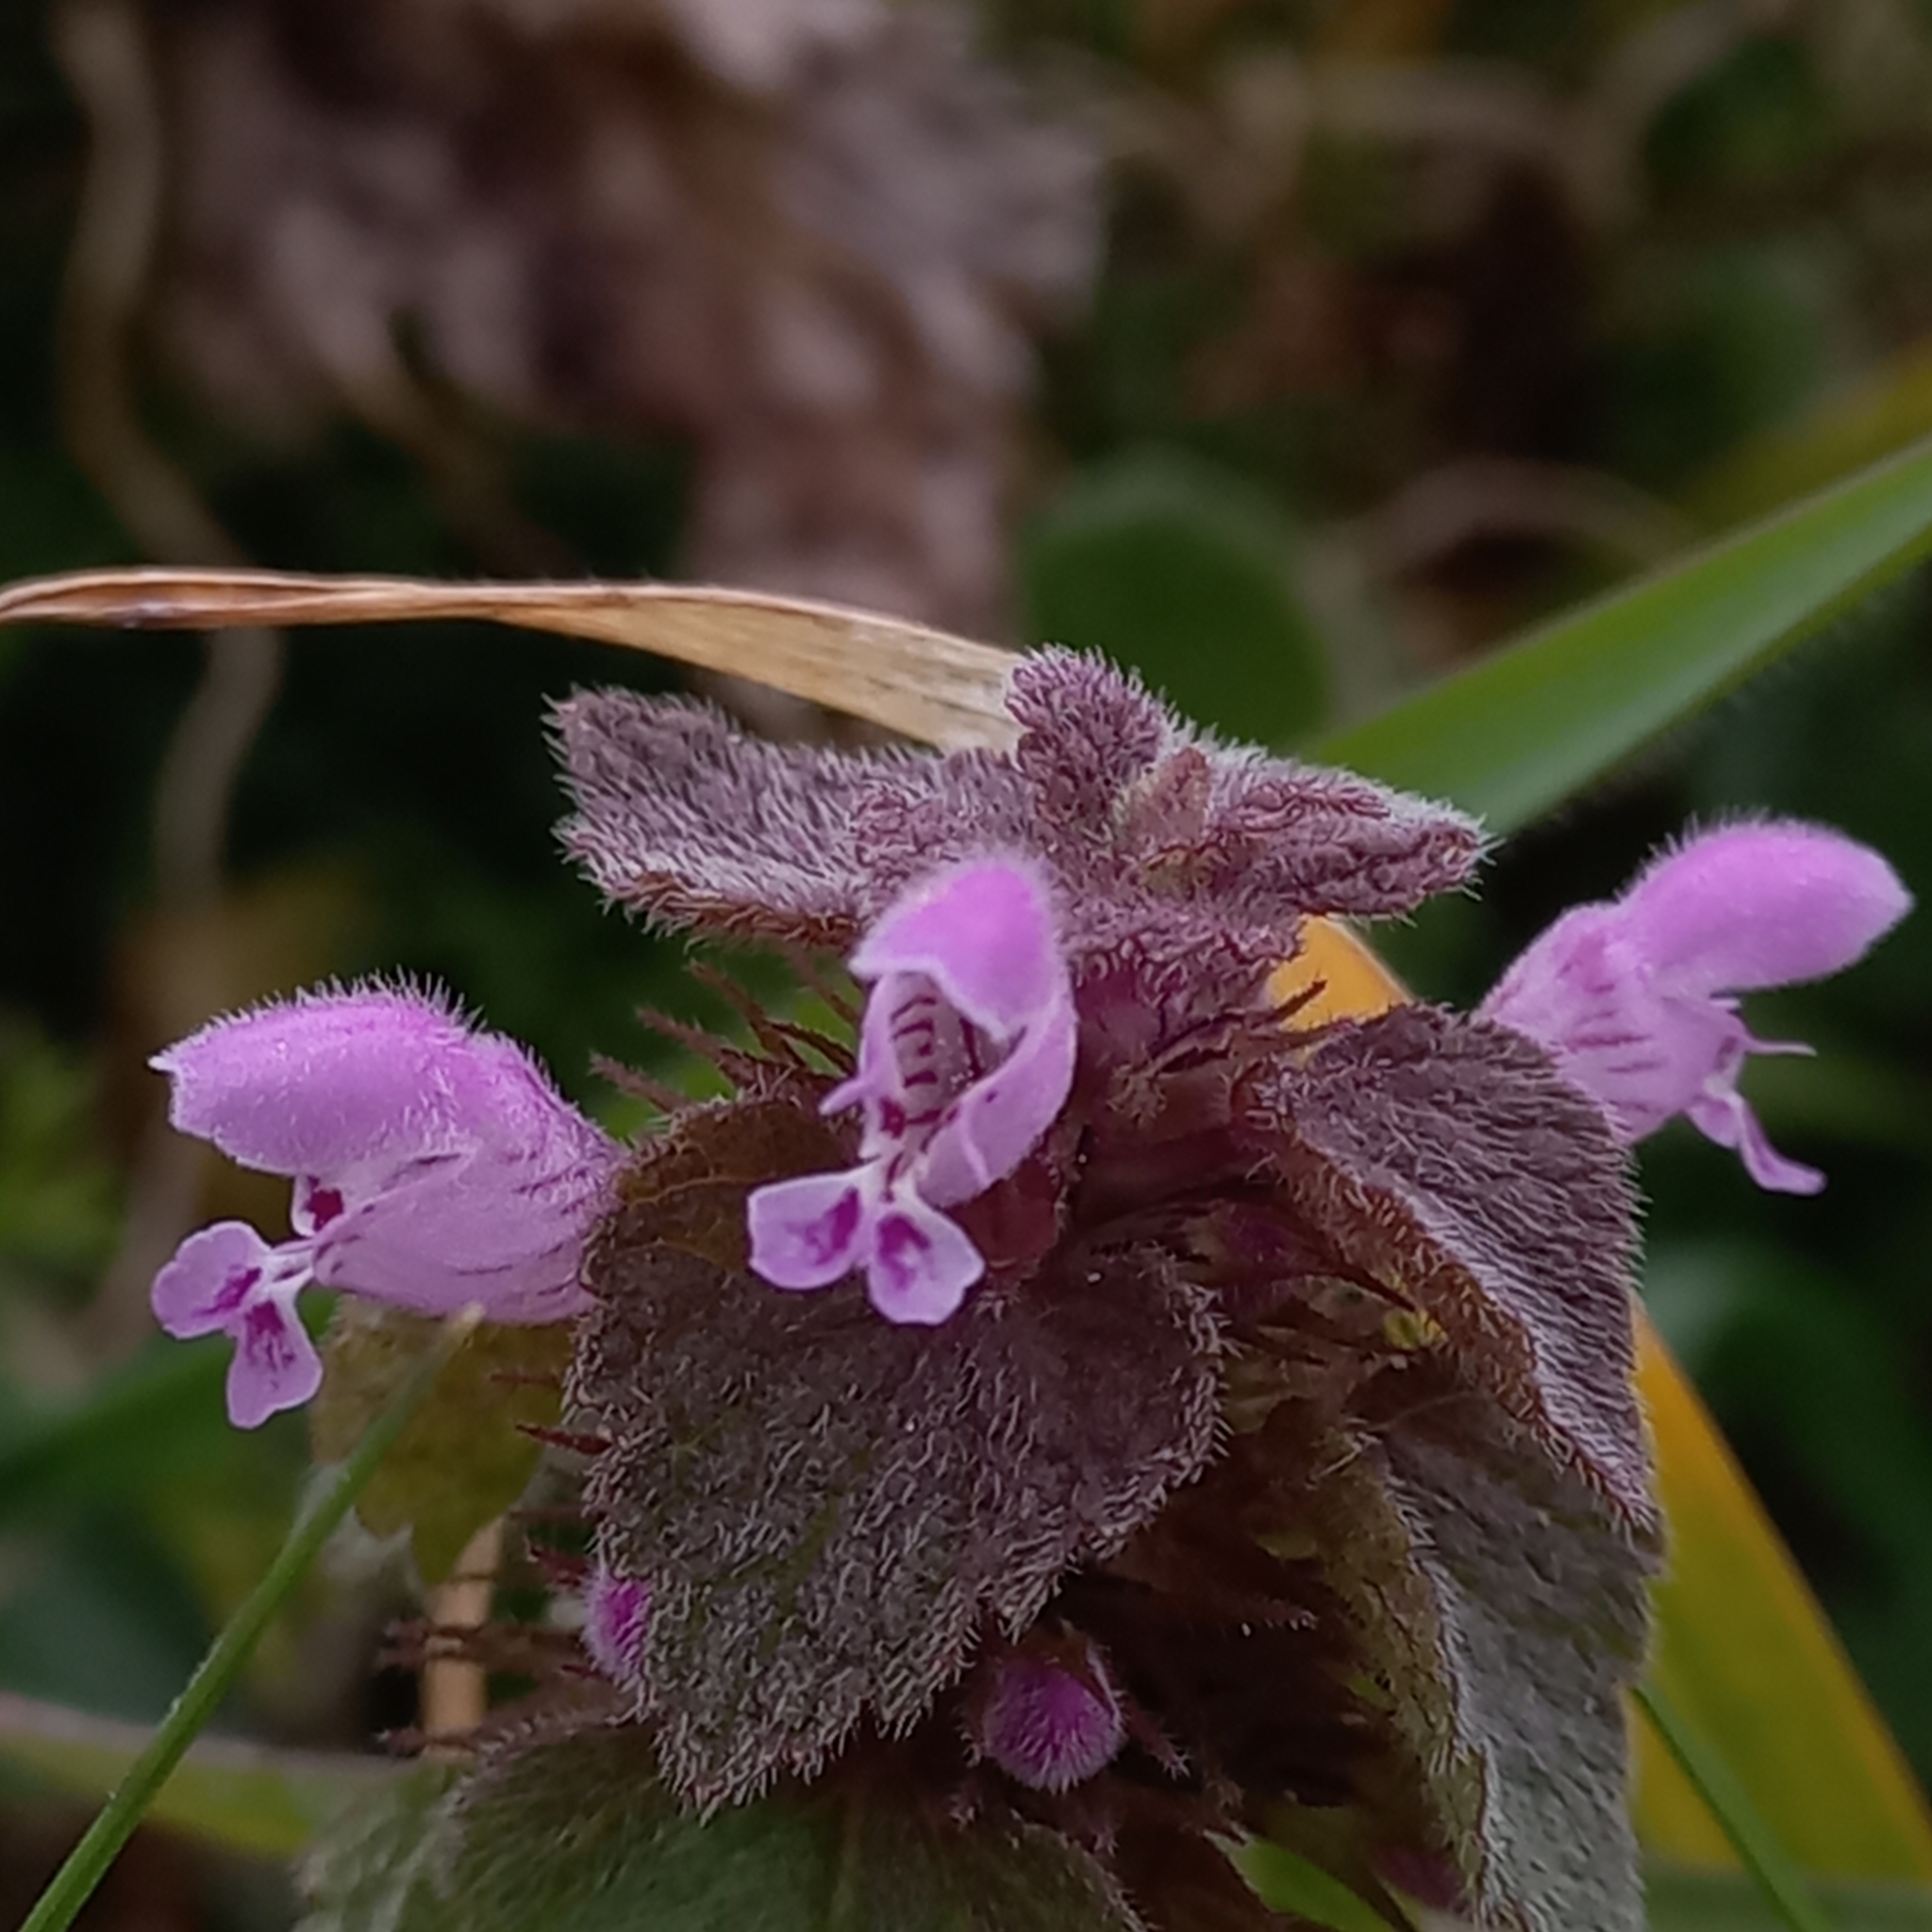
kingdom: Plantae
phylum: Tracheophyta
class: Magnoliopsida
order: Lamiales
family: Lamiaceae
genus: Lamium
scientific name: Lamium purpureum
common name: Red dead-nettle
